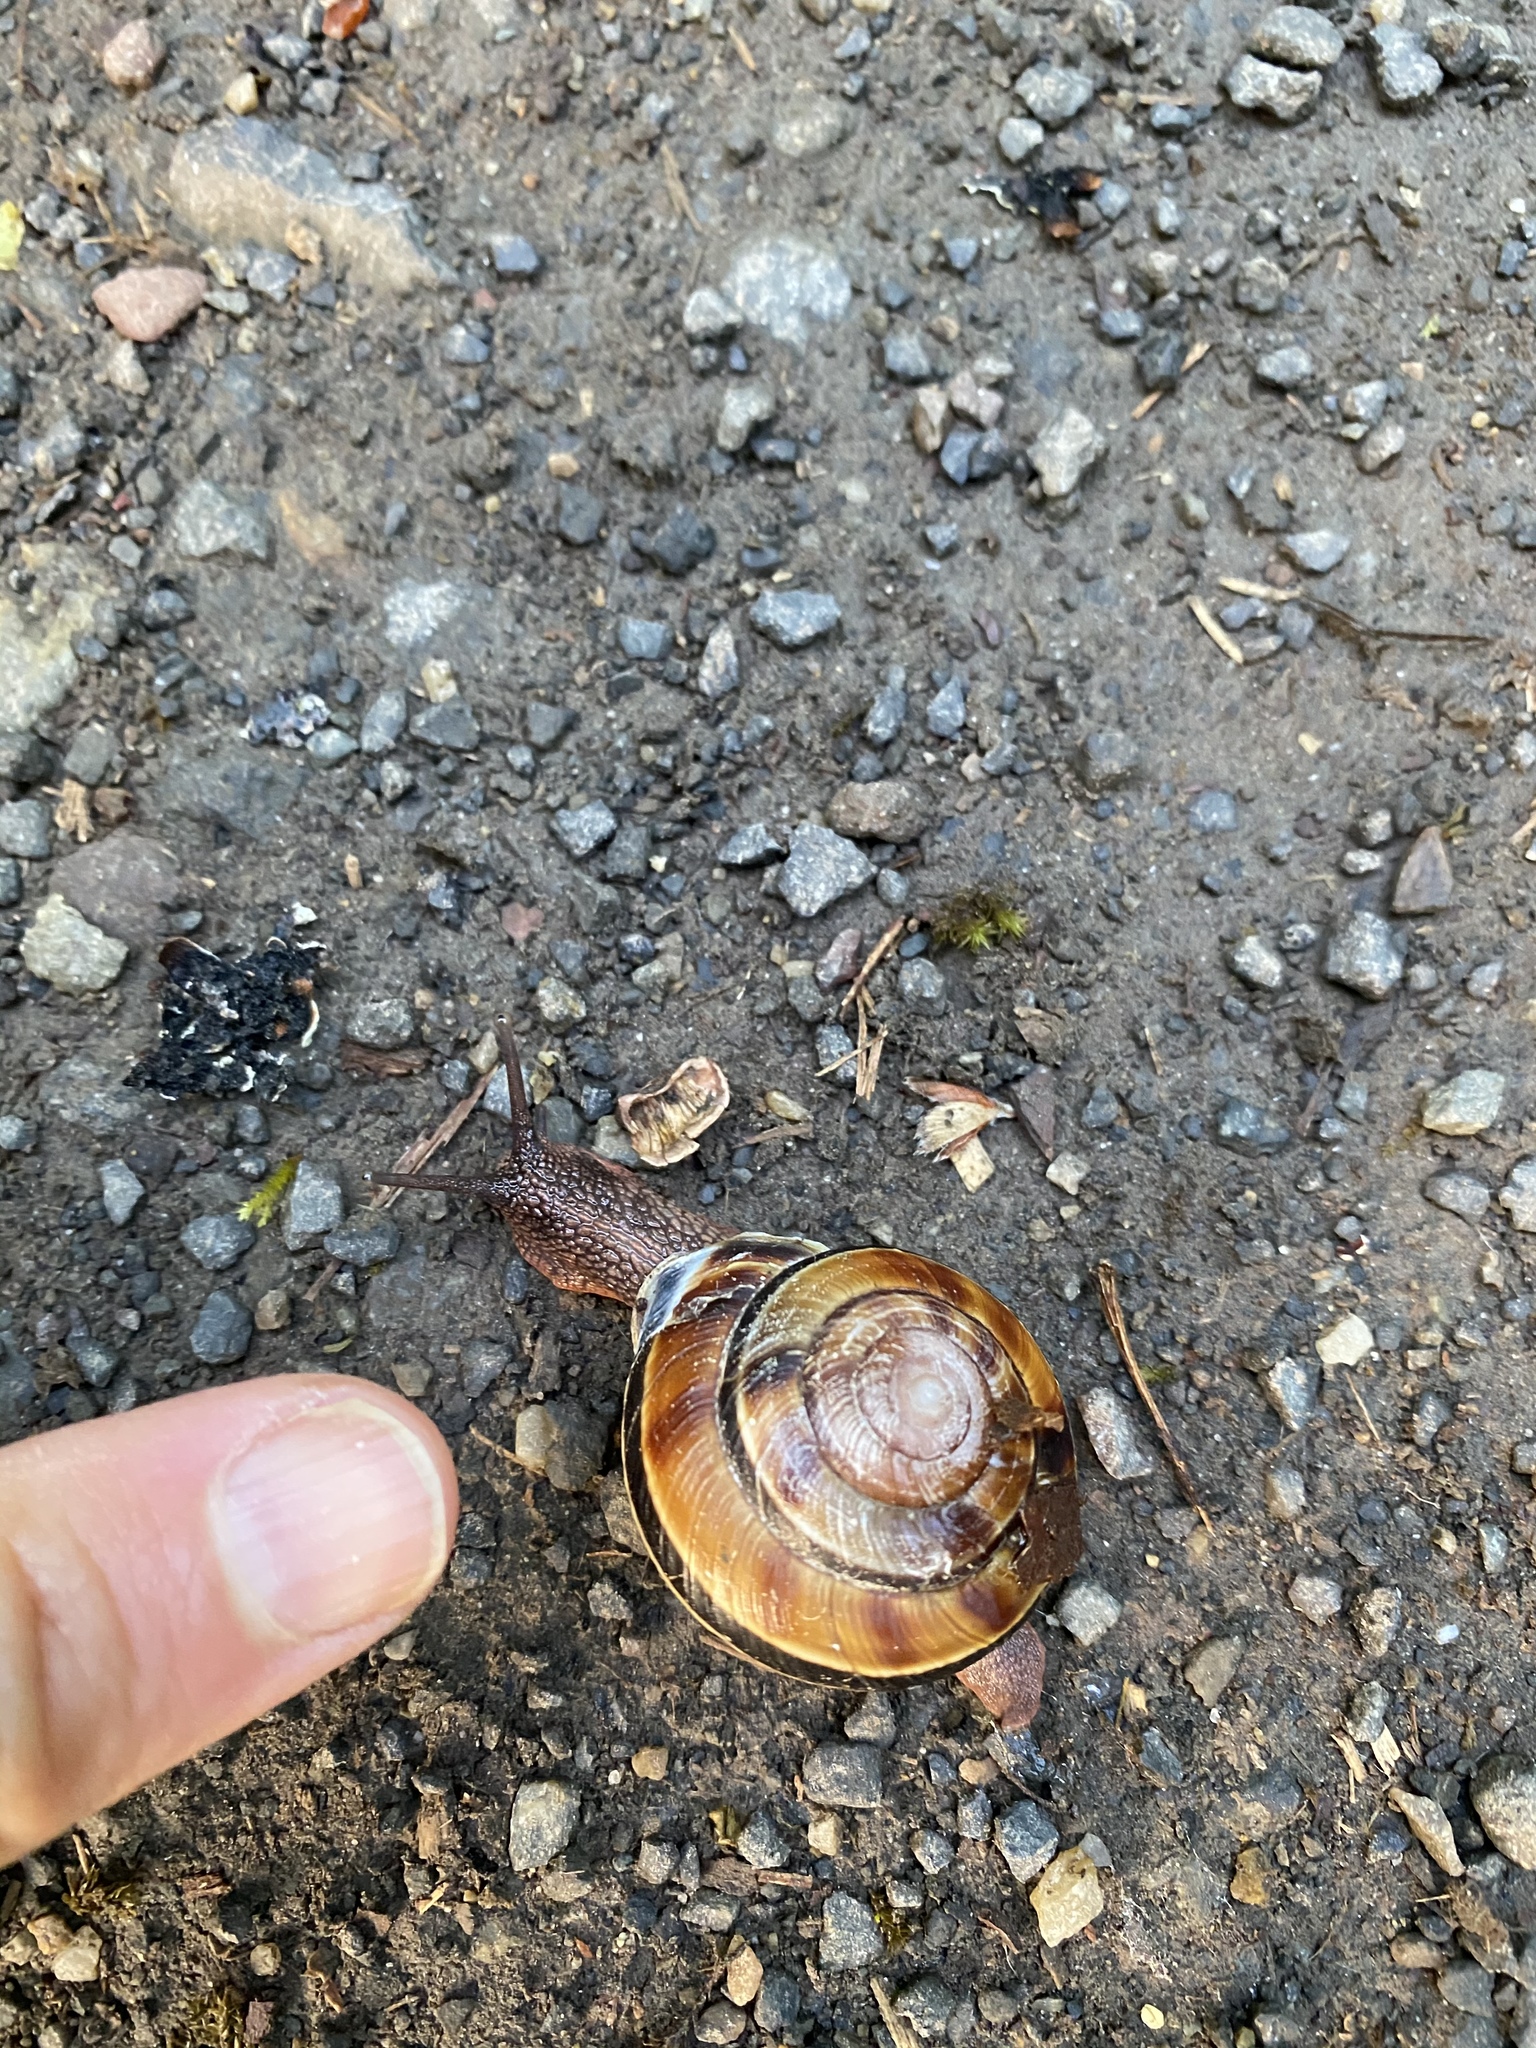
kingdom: Animalia
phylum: Mollusca
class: Gastropoda
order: Stylommatophora
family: Xanthonychidae
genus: Monadenia
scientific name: Monadenia fidelis
